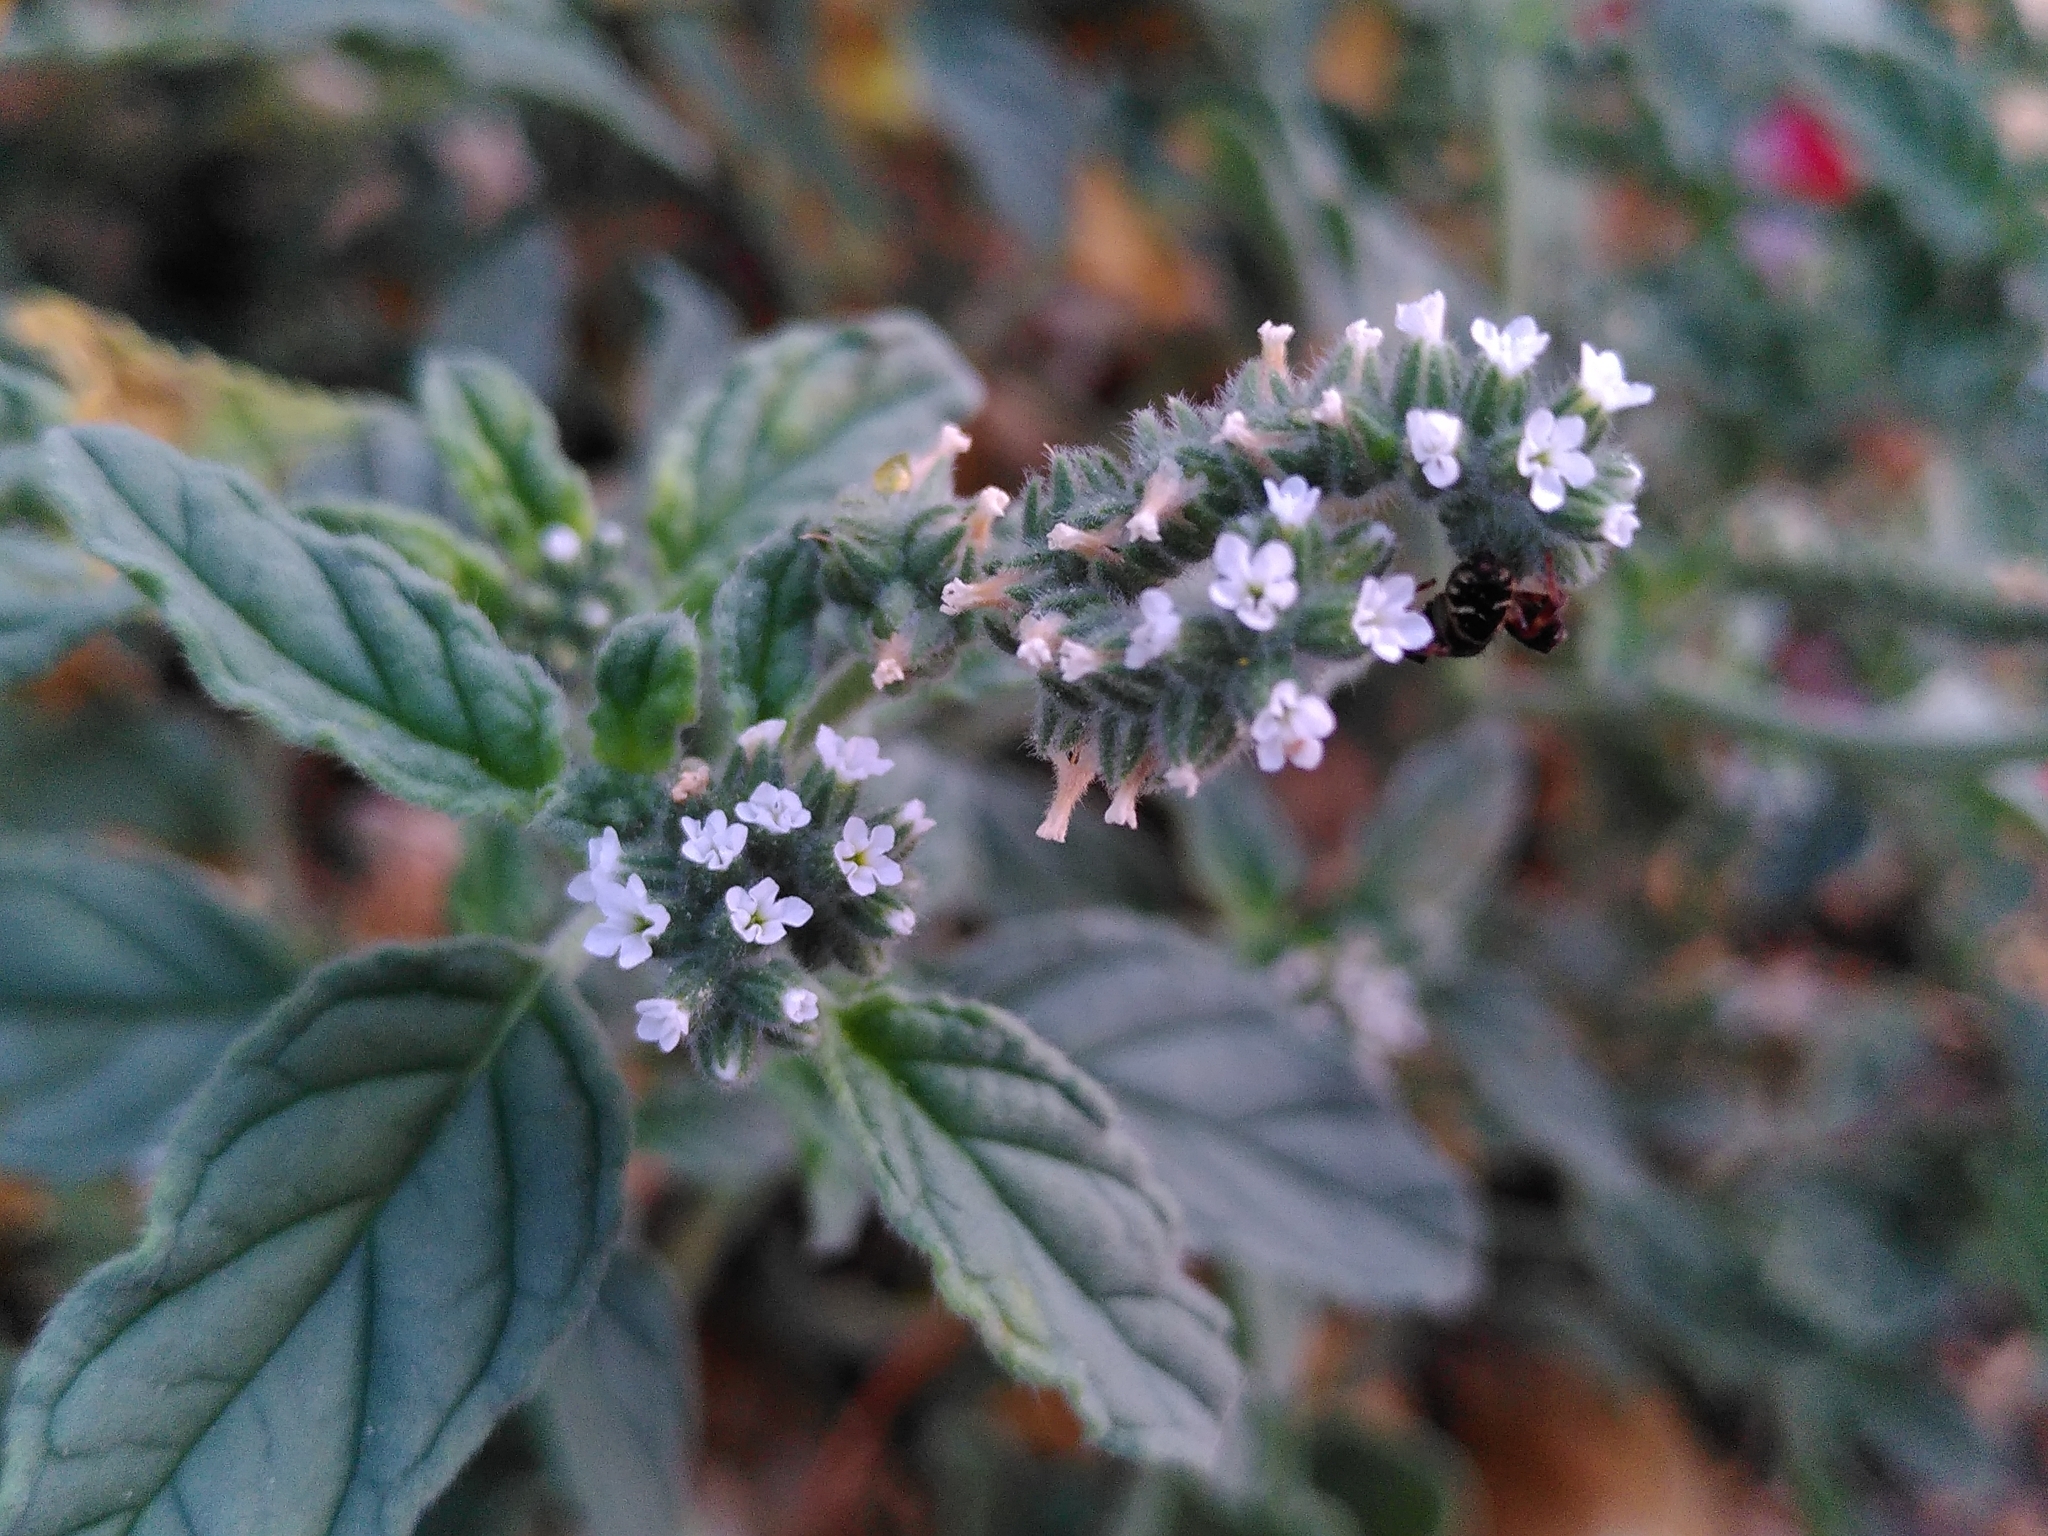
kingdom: Plantae
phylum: Tracheophyta
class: Magnoliopsida
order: Boraginales
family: Heliotropiaceae
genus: Heliotropium
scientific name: Heliotropium europaeum
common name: European heliotrope
